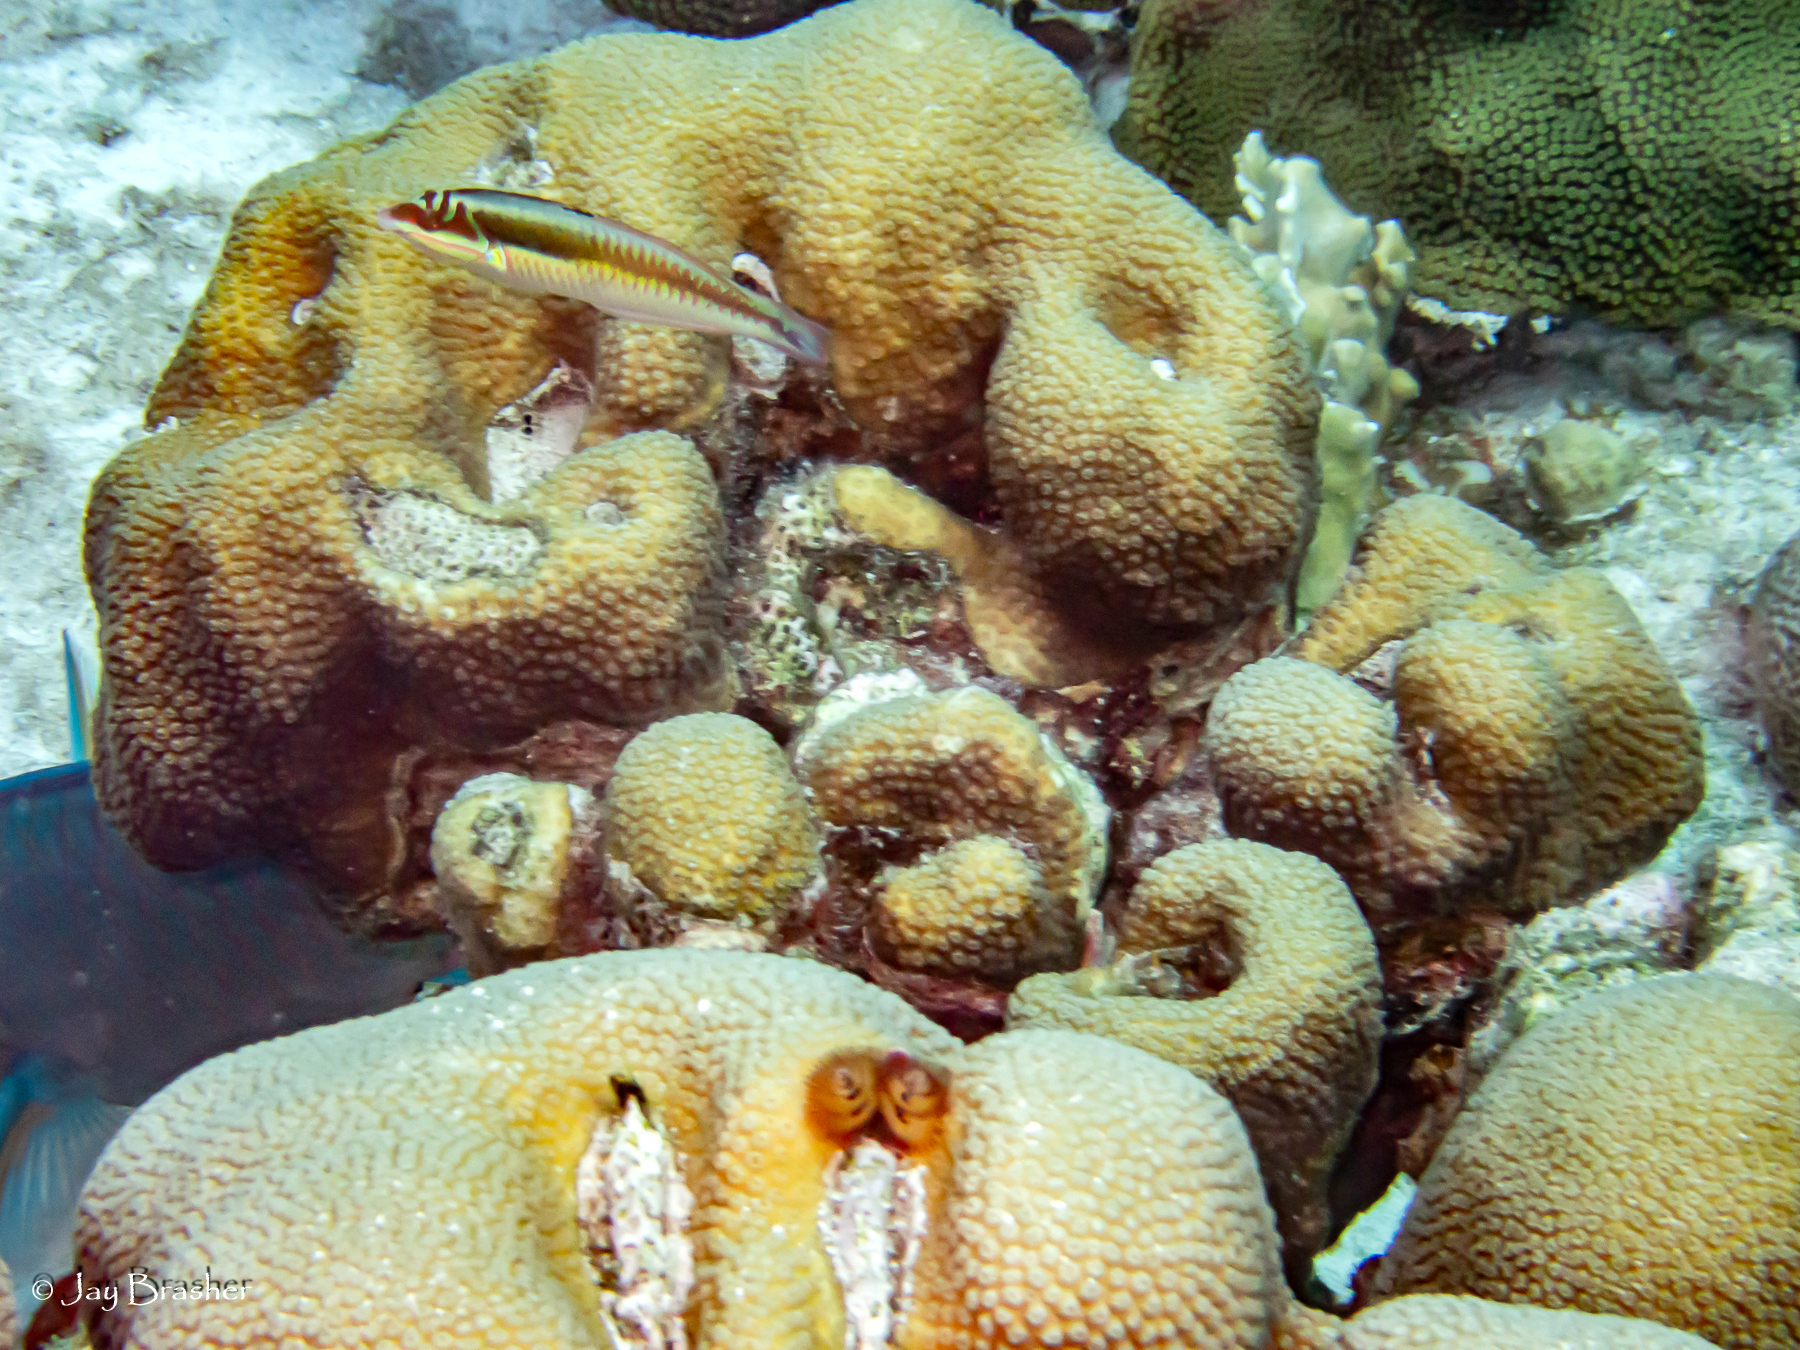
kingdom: Animalia
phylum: Chordata
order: Perciformes
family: Labridae
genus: Halichoeres
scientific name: Halichoeres maculipinna
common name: Clown wrasse
